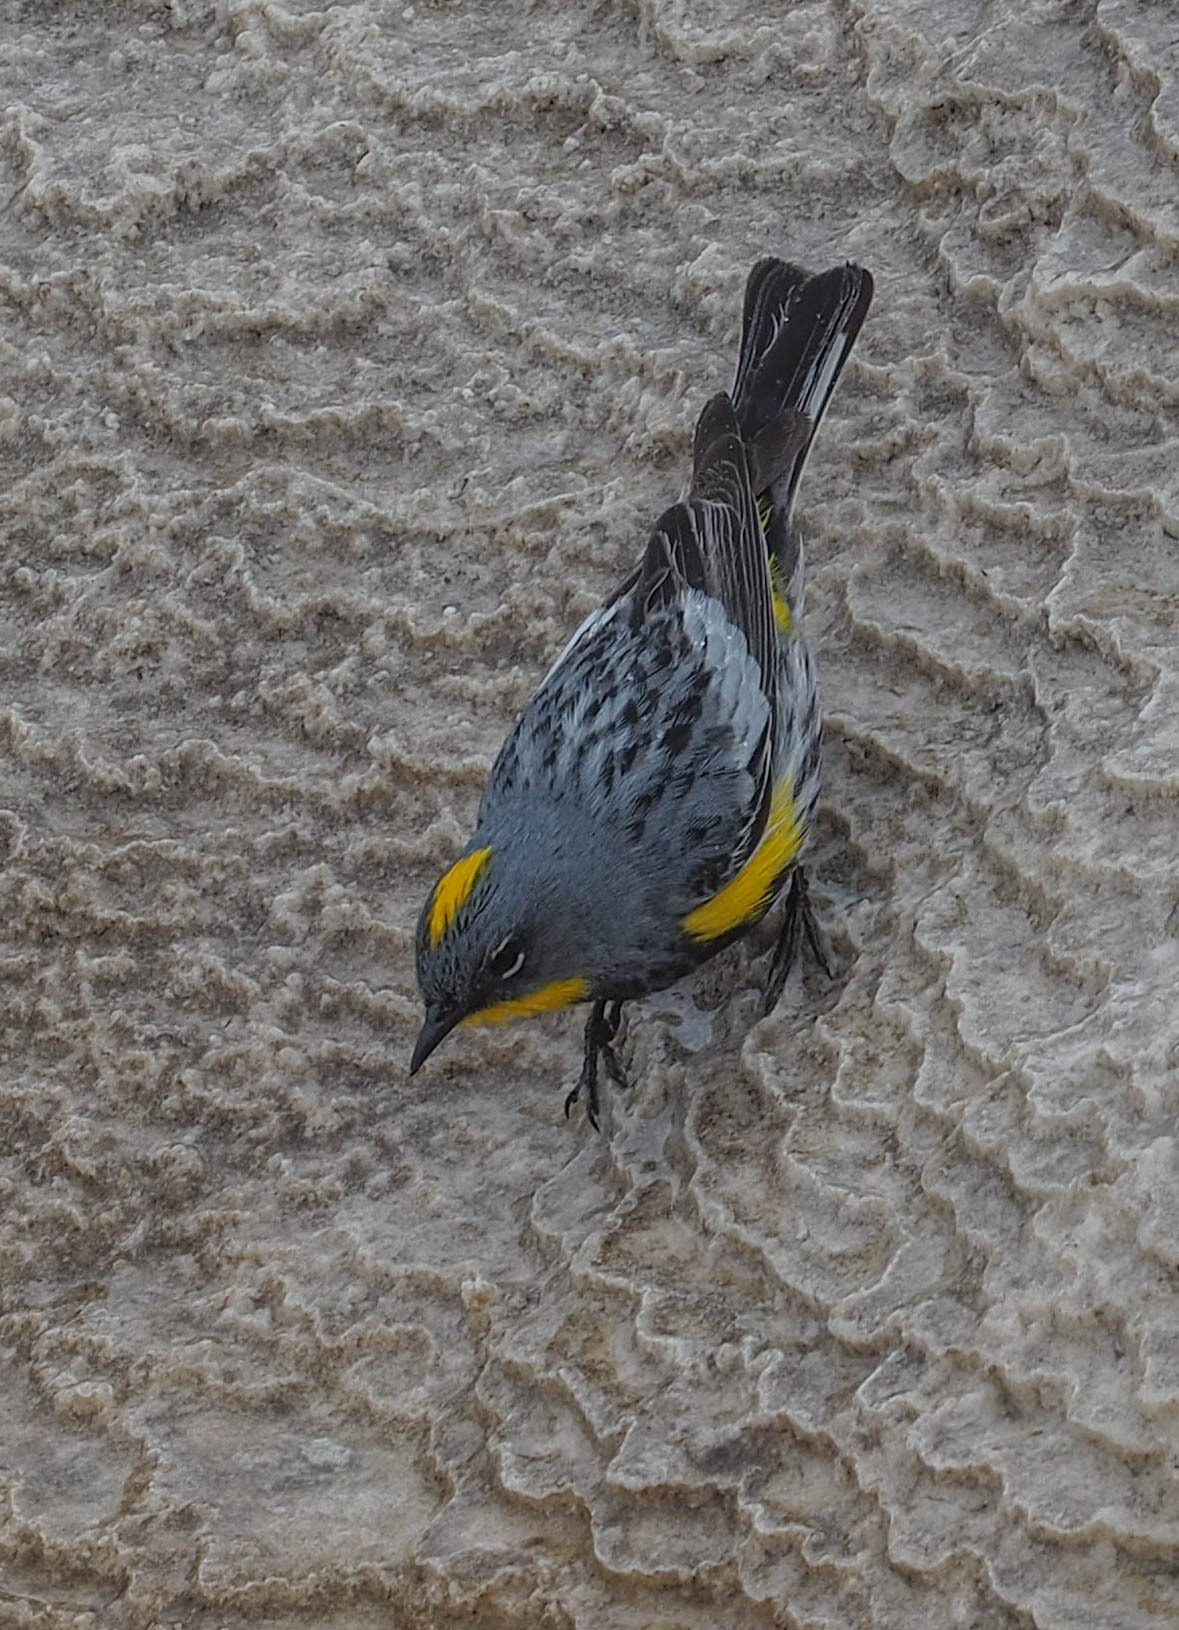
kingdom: Animalia
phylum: Chordata
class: Aves
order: Passeriformes
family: Parulidae
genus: Setophaga
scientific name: Setophaga coronata
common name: Myrtle warbler
